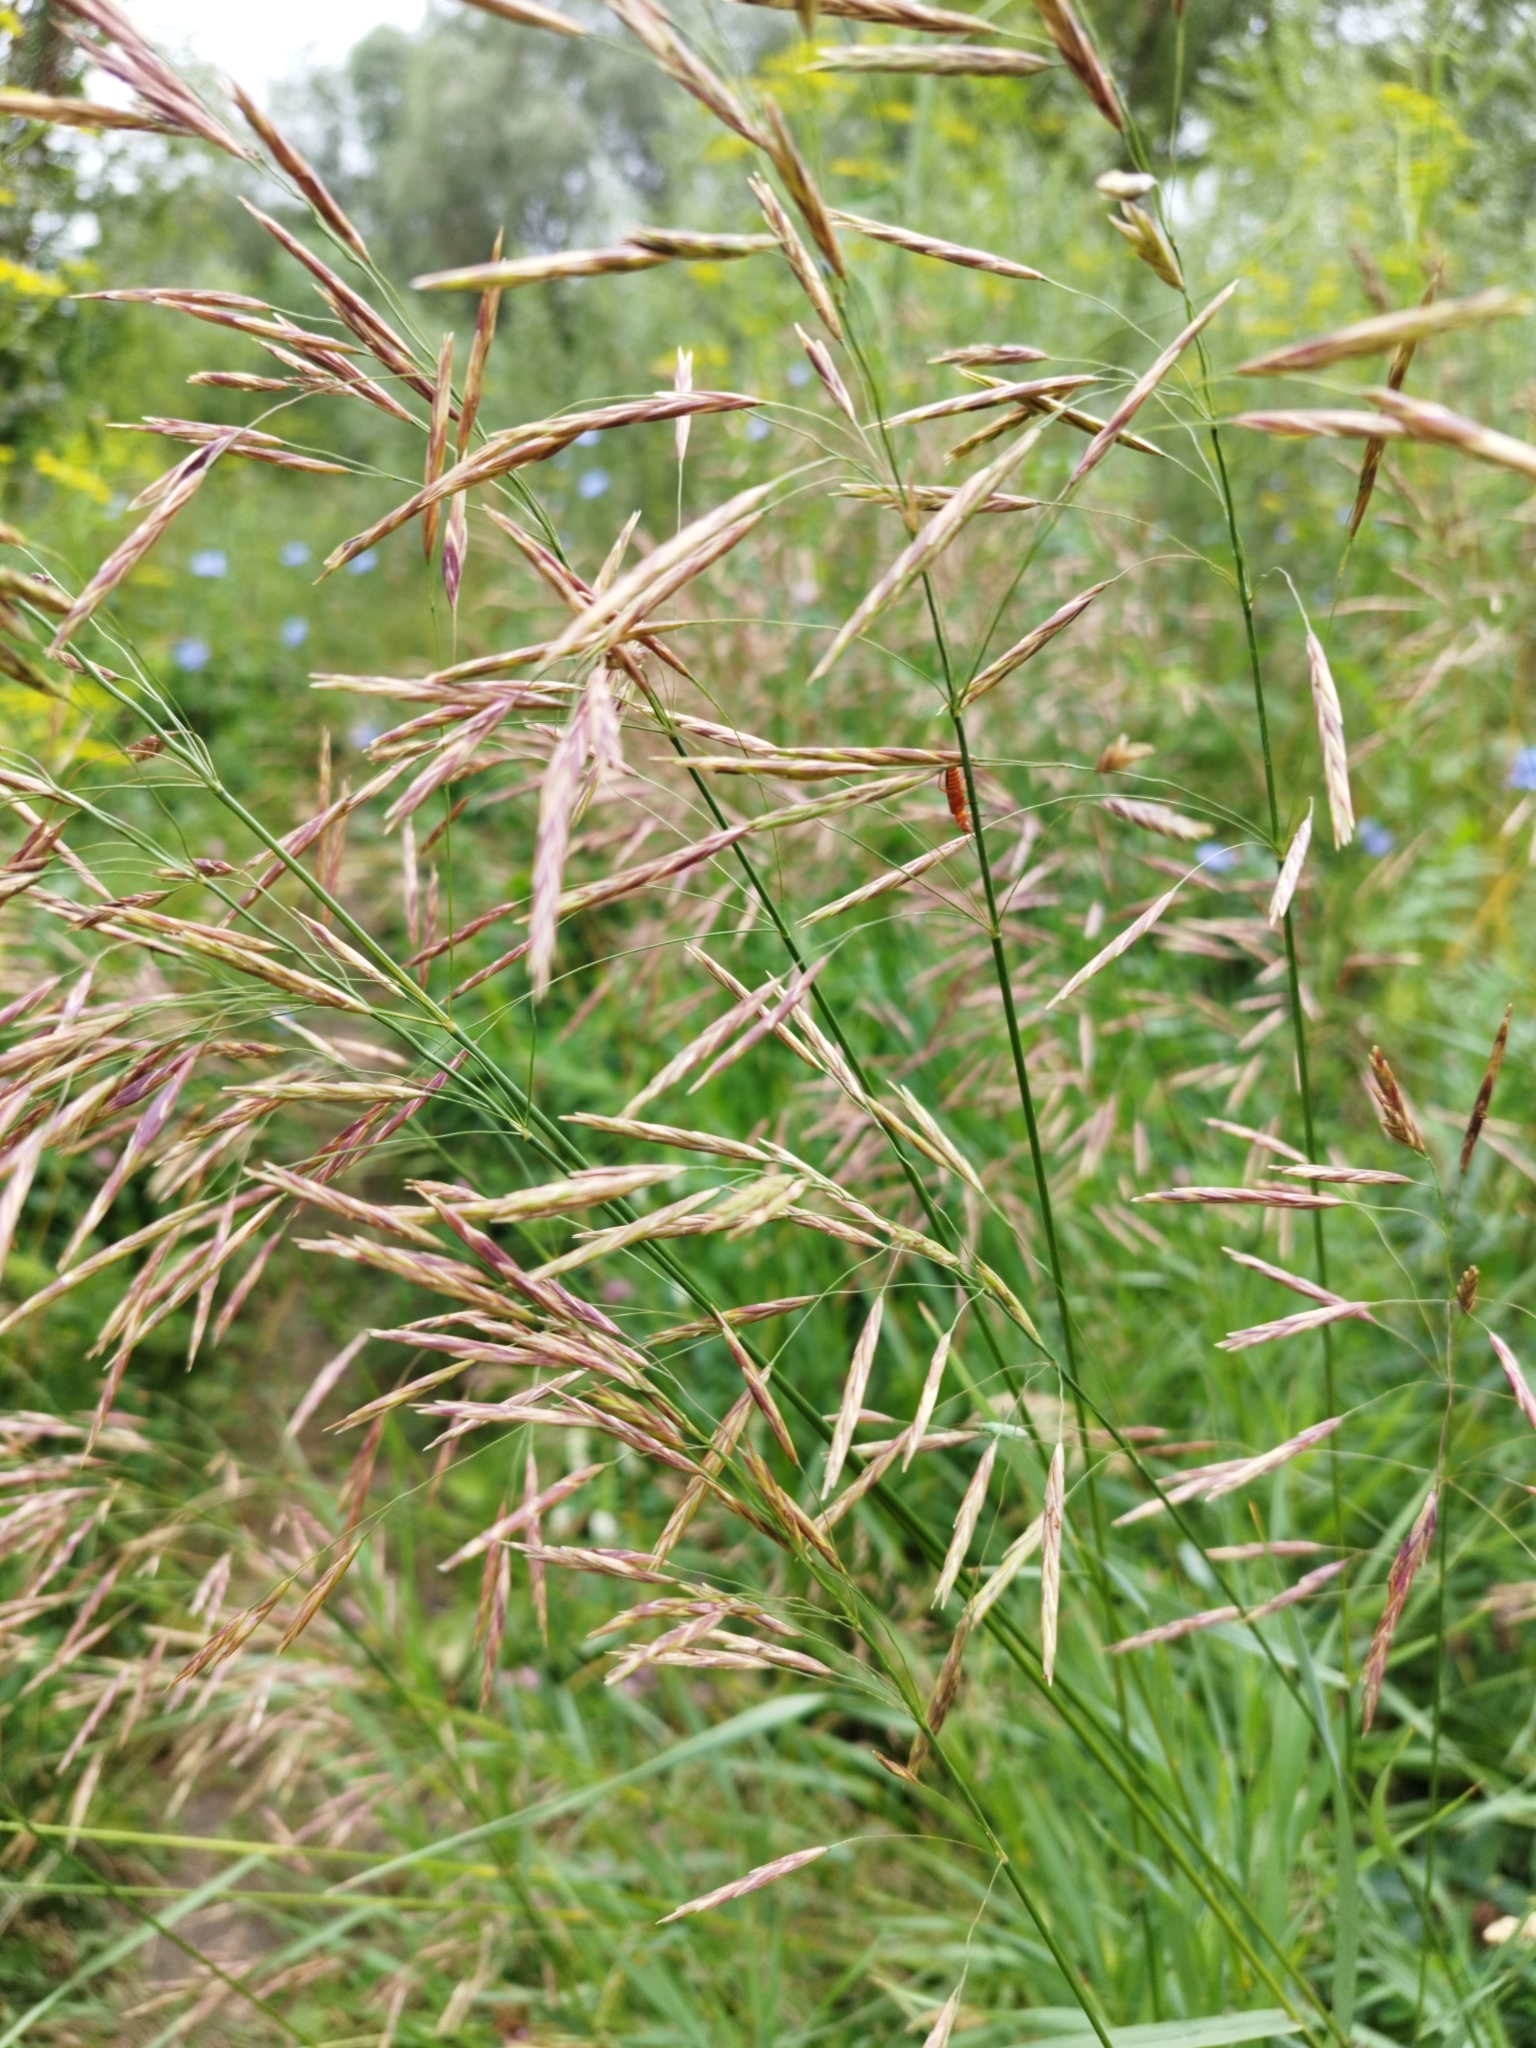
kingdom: Plantae
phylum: Tracheophyta
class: Liliopsida
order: Poales
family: Poaceae
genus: Bromus
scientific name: Bromus inermis
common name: Smooth brome
